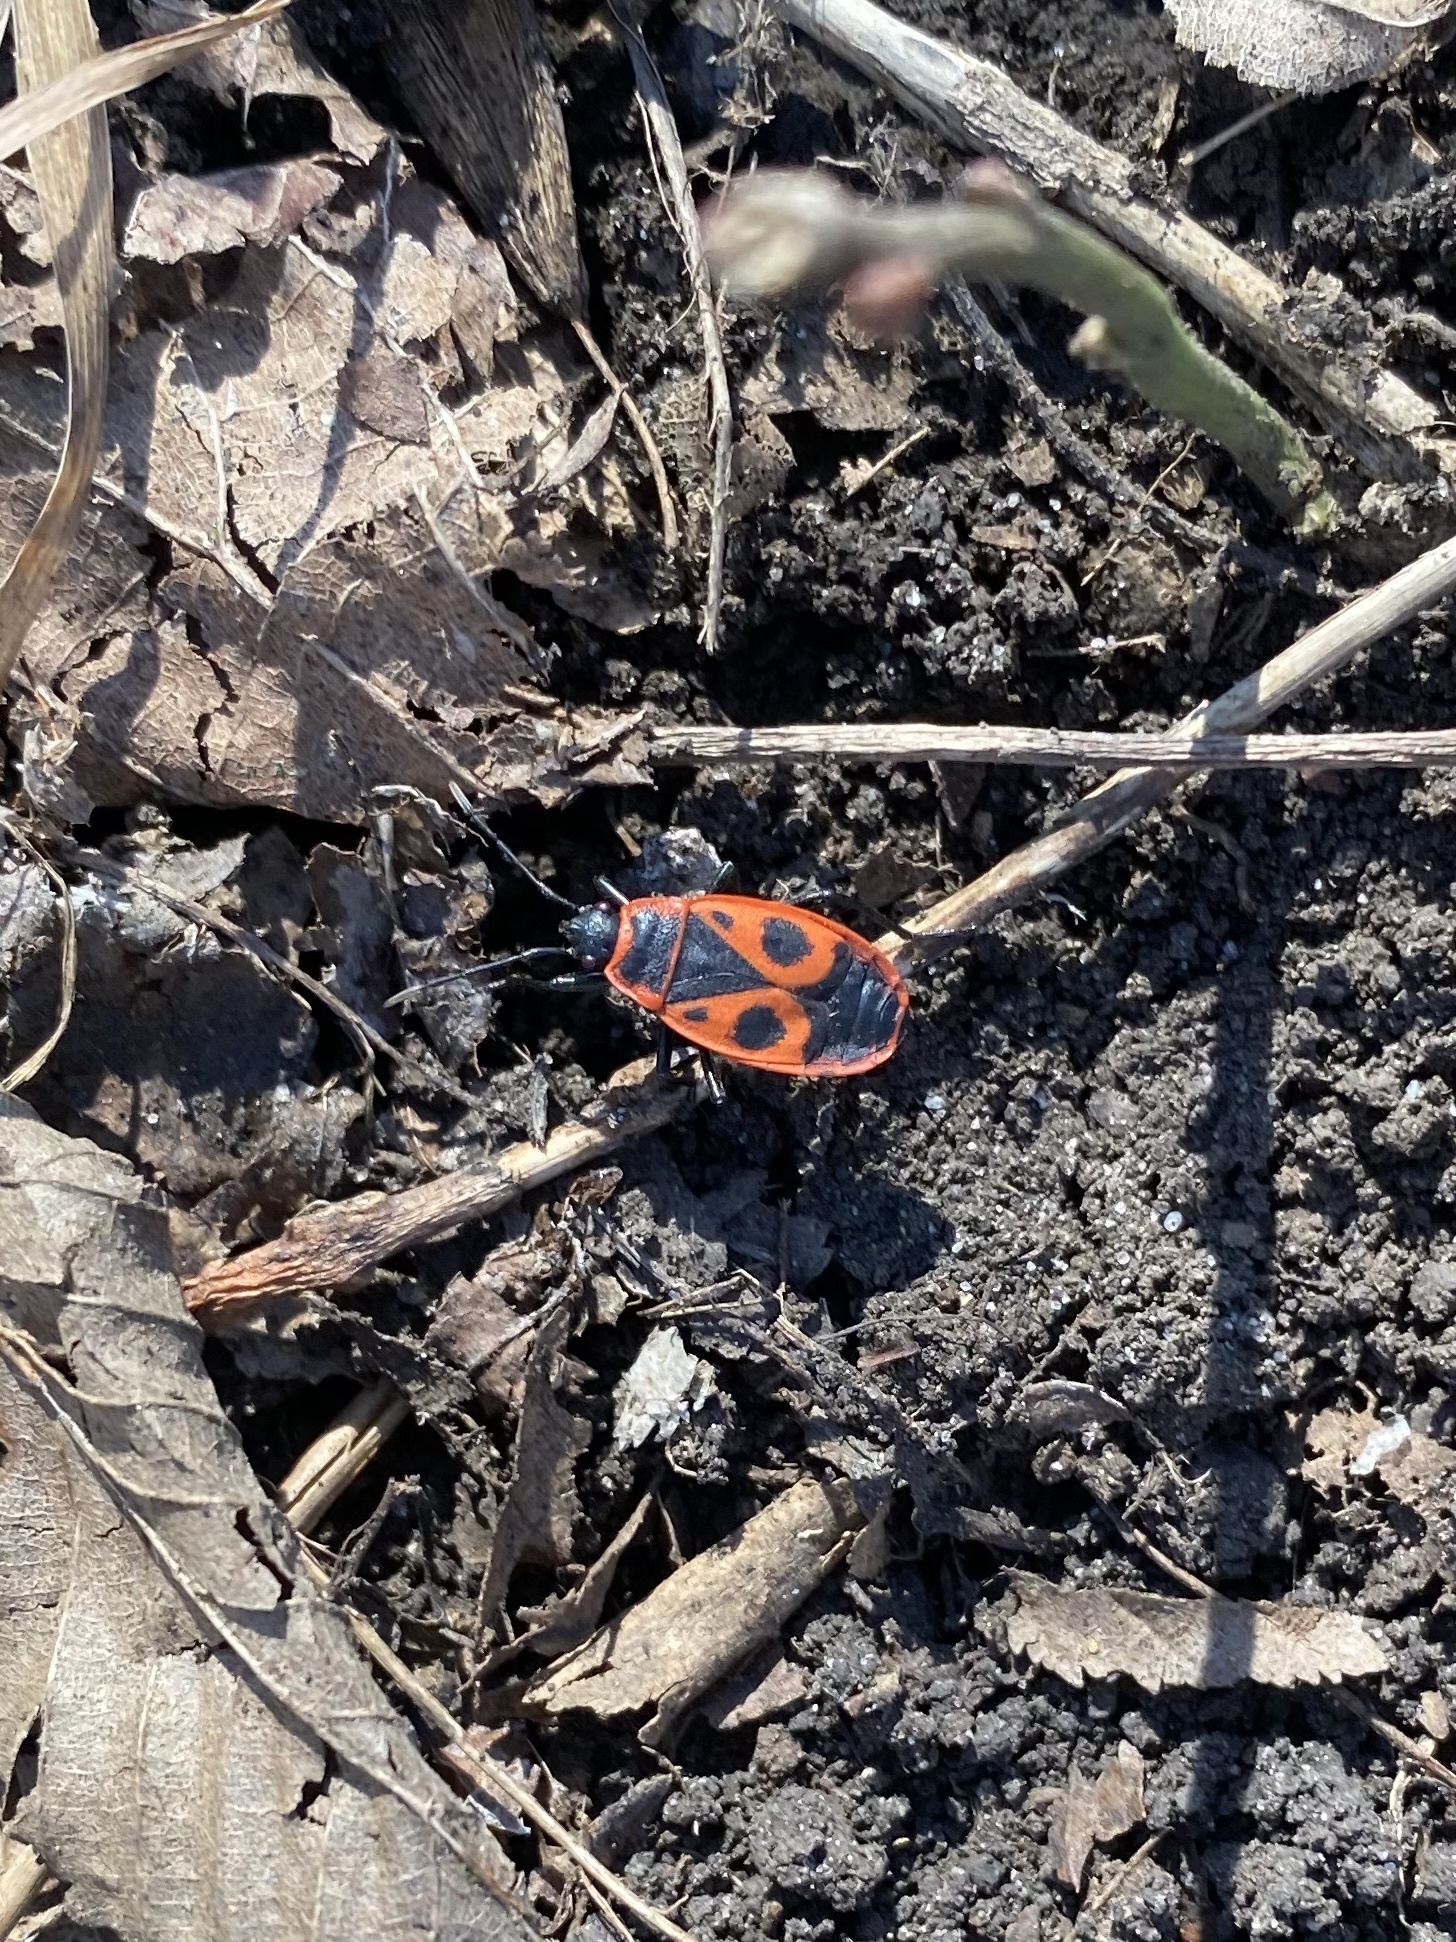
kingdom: Animalia
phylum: Arthropoda
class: Insecta
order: Hemiptera
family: Pyrrhocoridae
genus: Pyrrhocoris
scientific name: Pyrrhocoris apterus
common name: Firebug
